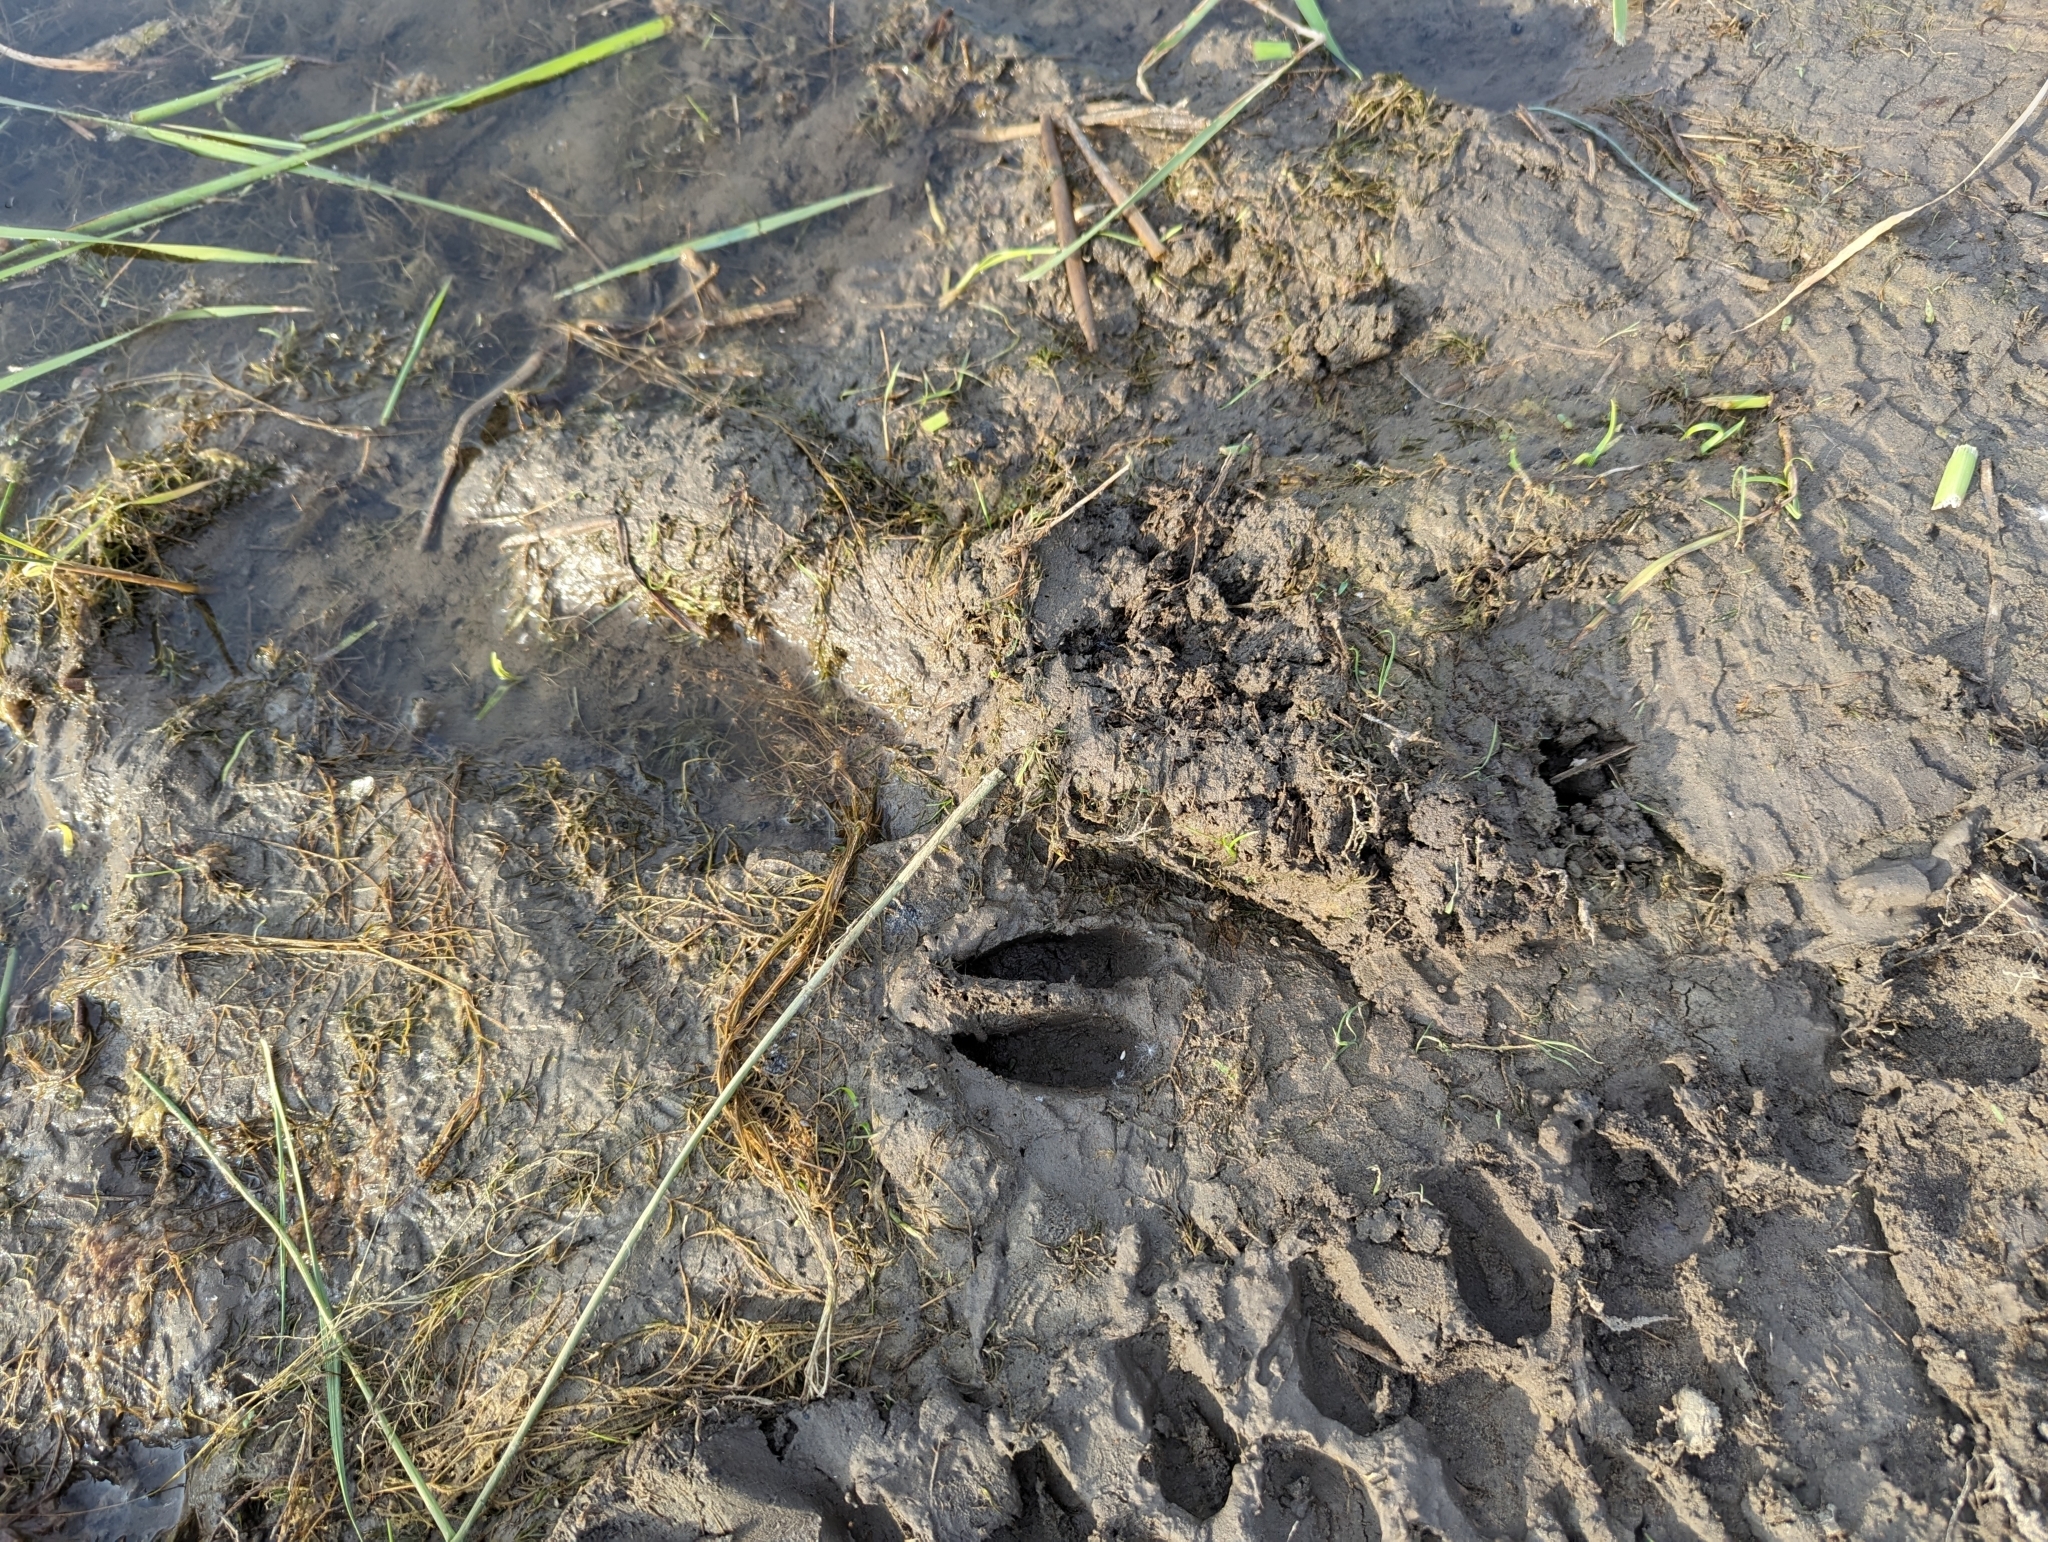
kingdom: Animalia
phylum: Chordata
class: Mammalia
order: Artiodactyla
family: Cervidae
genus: Odocoileus
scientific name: Odocoileus virginianus
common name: White-tailed deer
